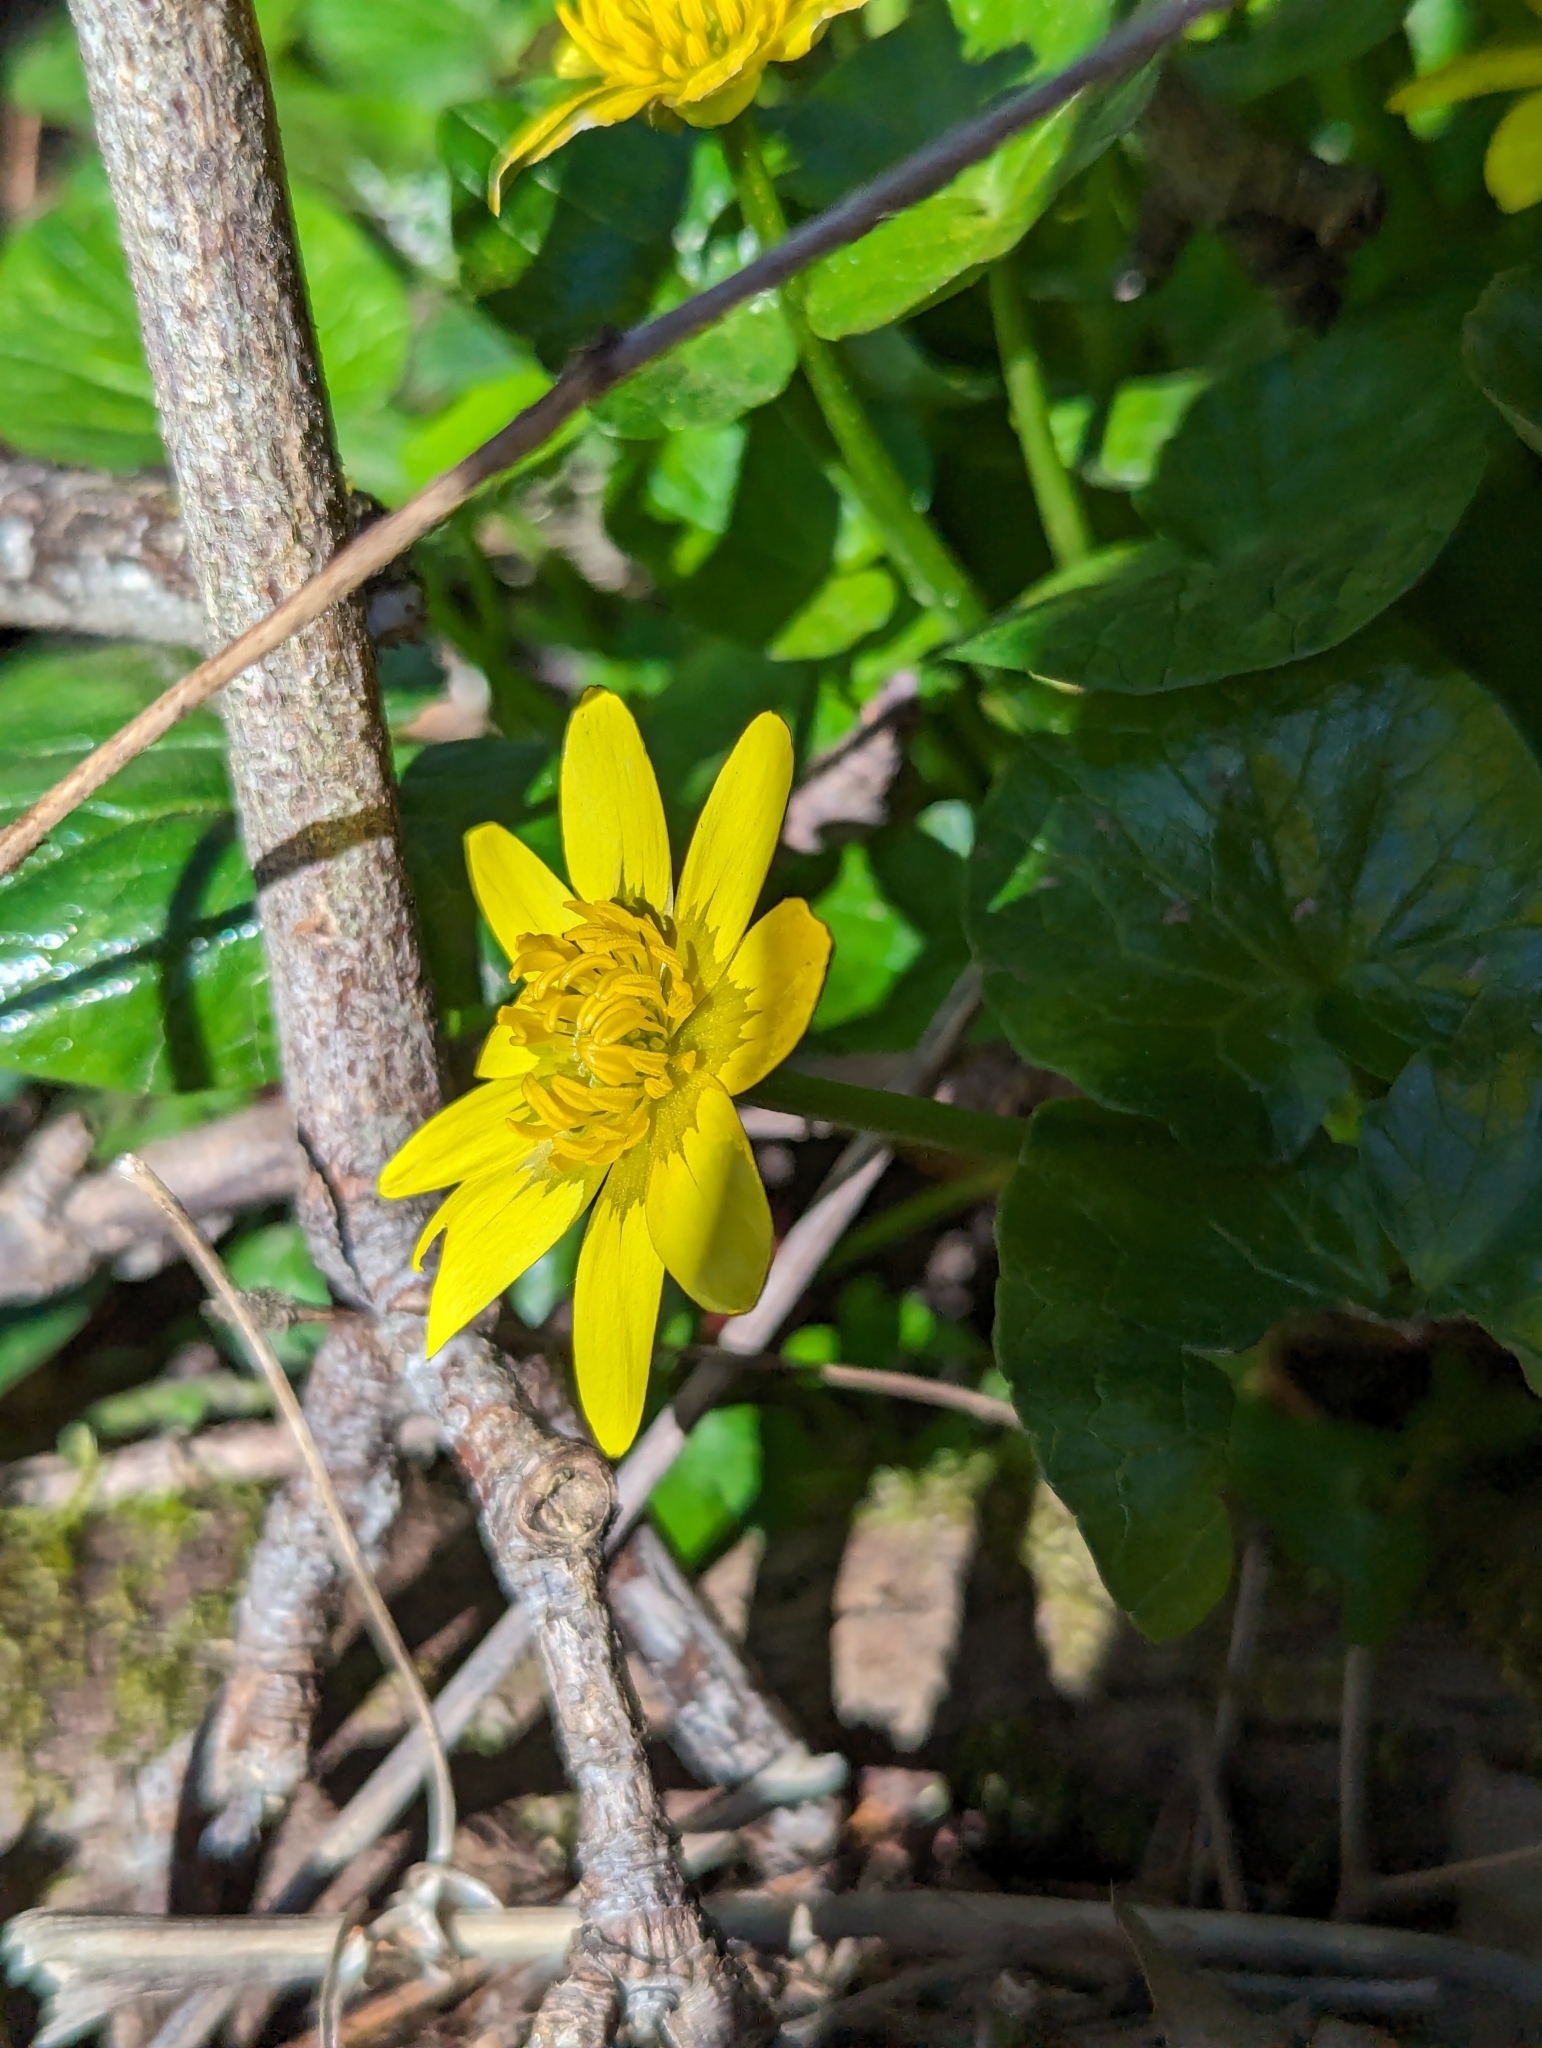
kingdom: Plantae
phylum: Tracheophyta
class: Magnoliopsida
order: Ranunculales
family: Ranunculaceae
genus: Ficaria
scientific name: Ficaria verna
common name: Lesser celandine
